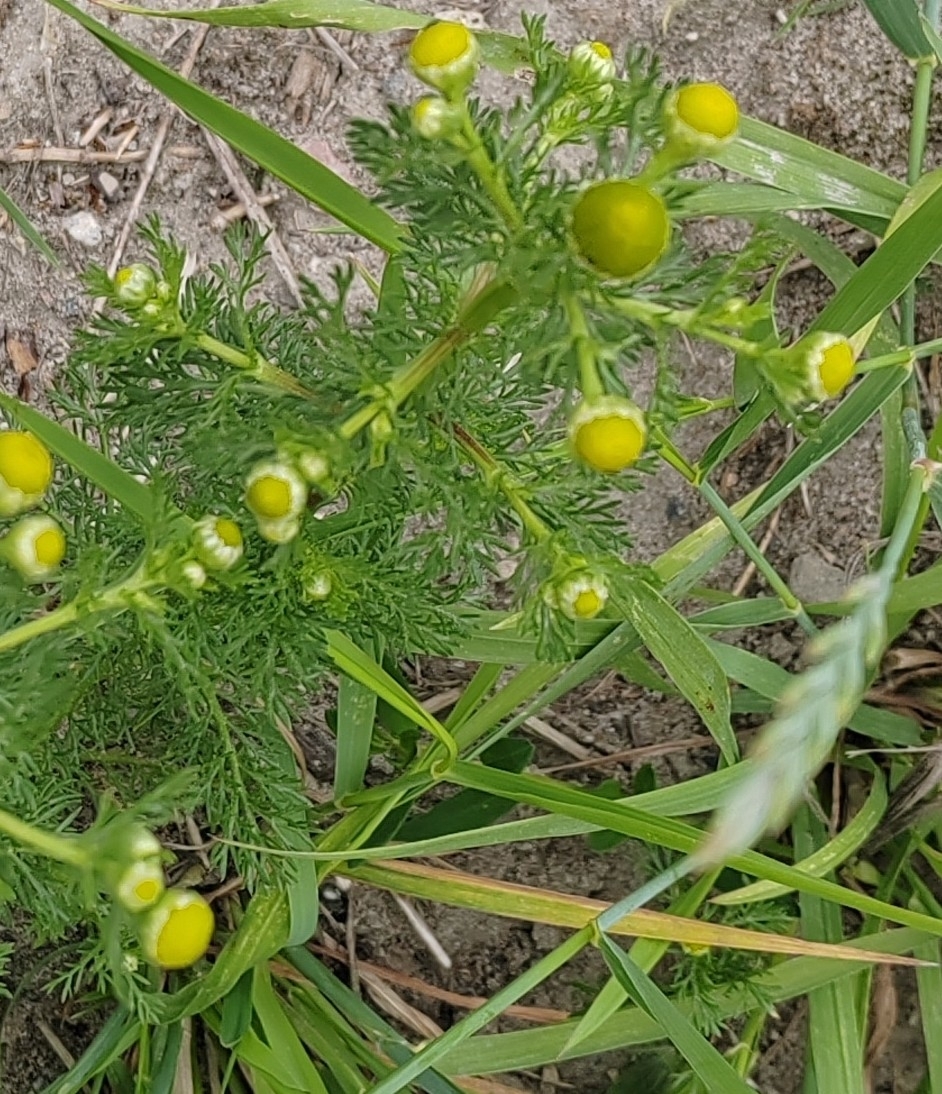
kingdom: Plantae
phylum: Tracheophyta
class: Magnoliopsida
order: Asterales
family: Asteraceae
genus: Matricaria
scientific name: Matricaria discoidea
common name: Disc mayweed
